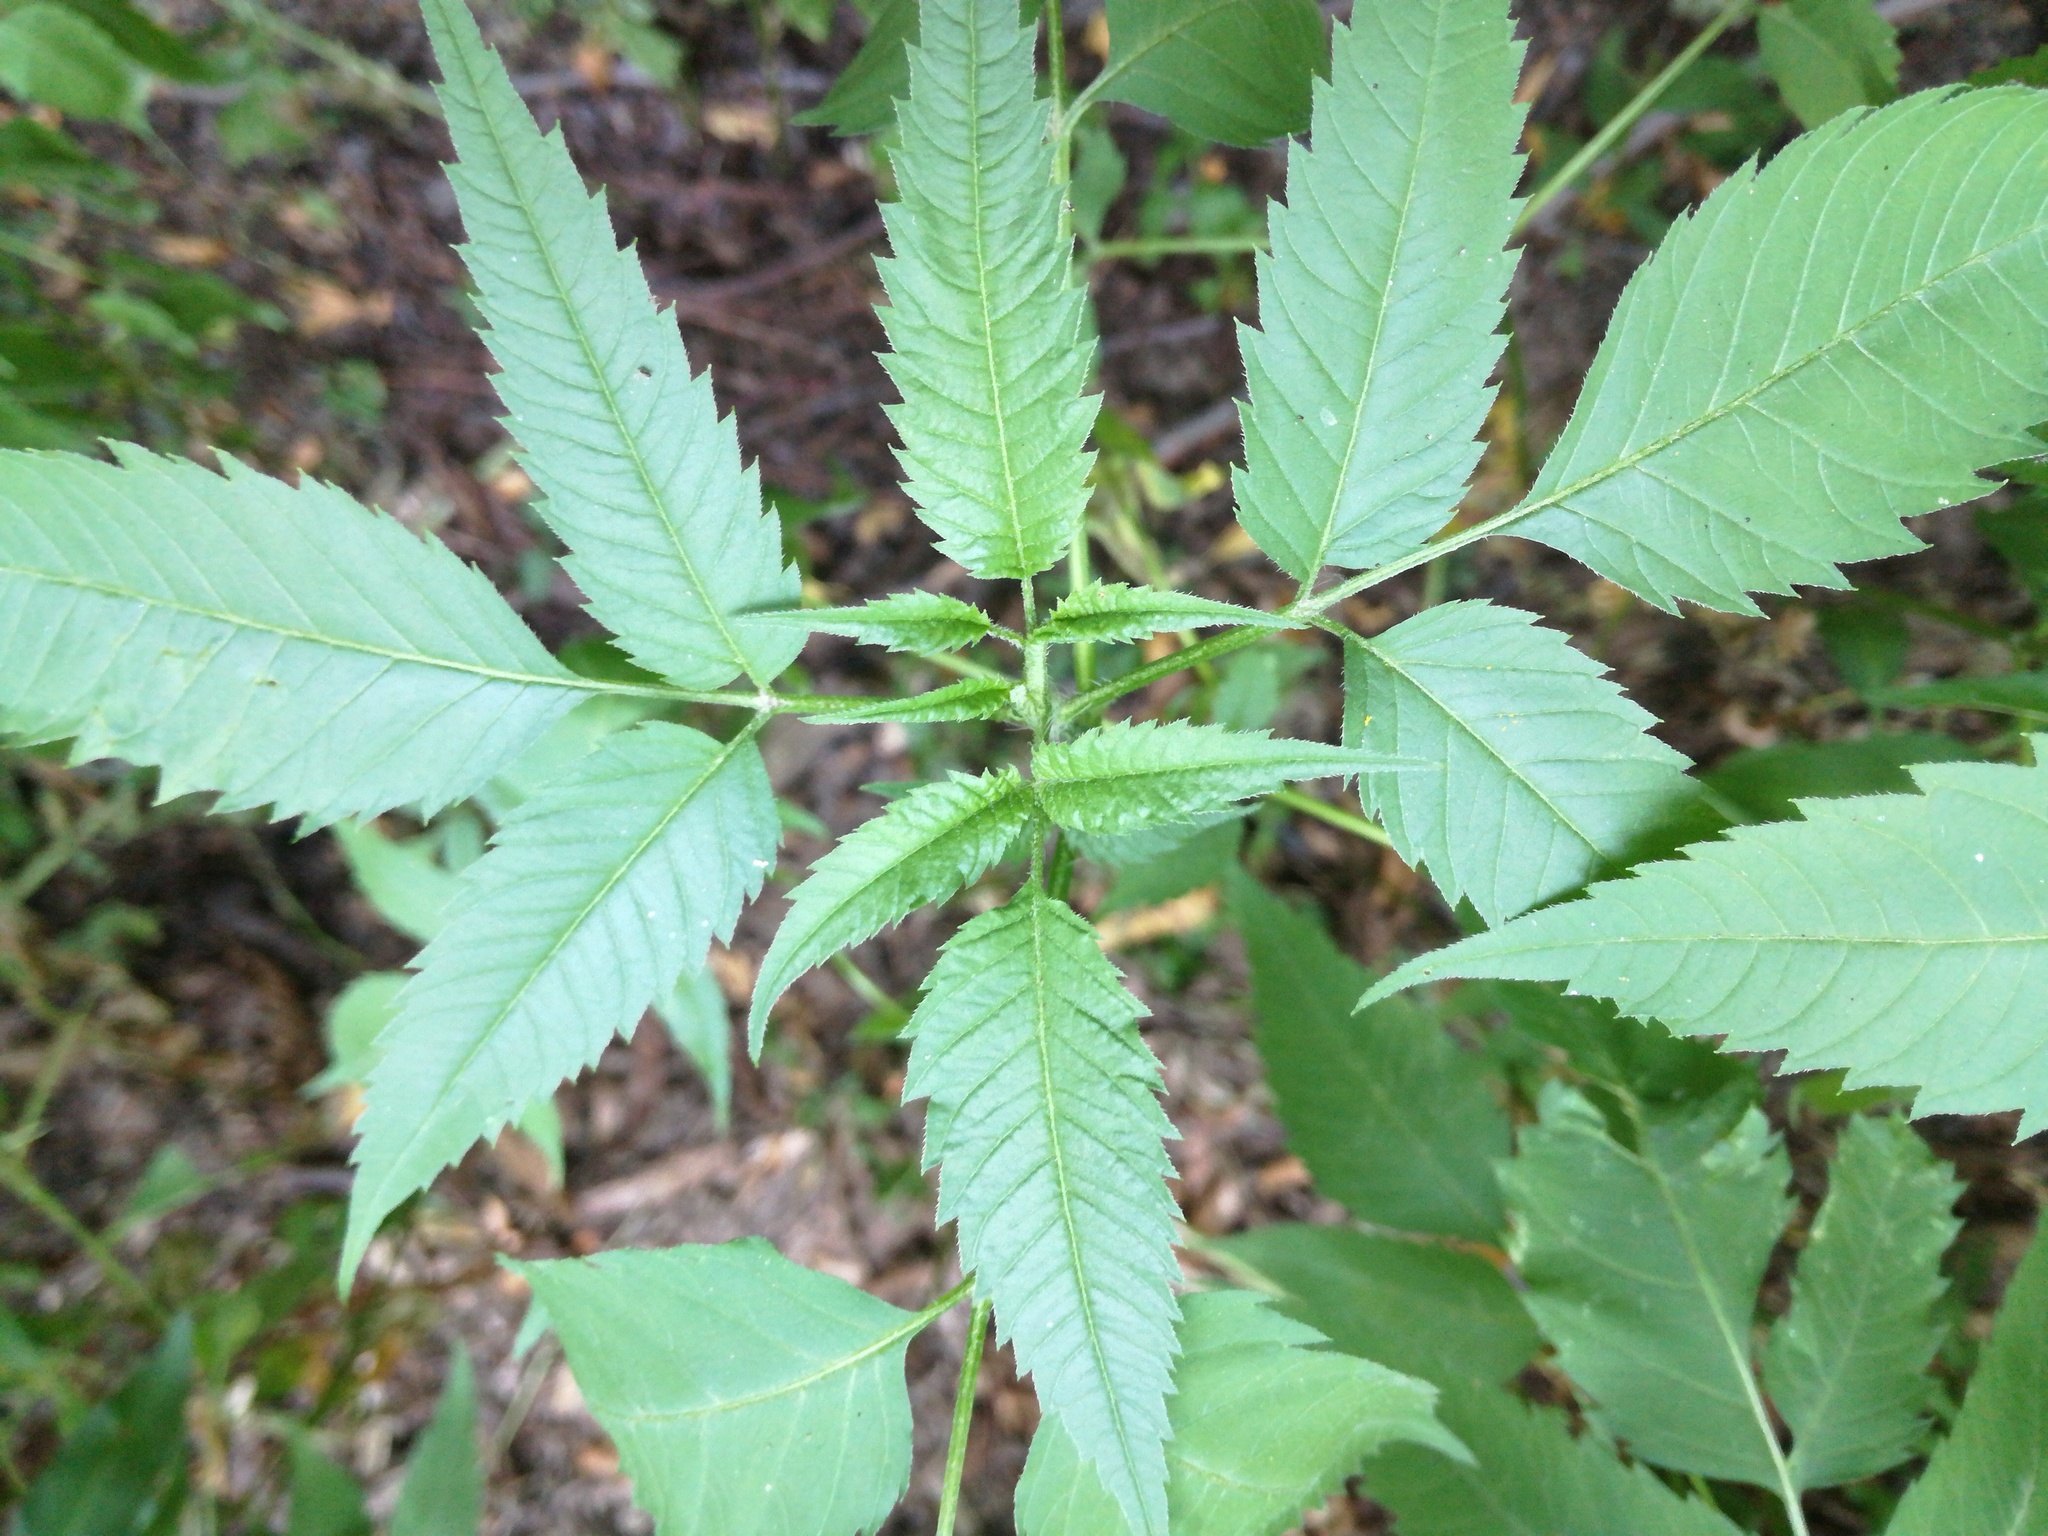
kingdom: Plantae
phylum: Tracheophyta
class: Magnoliopsida
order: Asterales
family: Asteraceae
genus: Bidens
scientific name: Bidens frondosa
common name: Beggarticks
